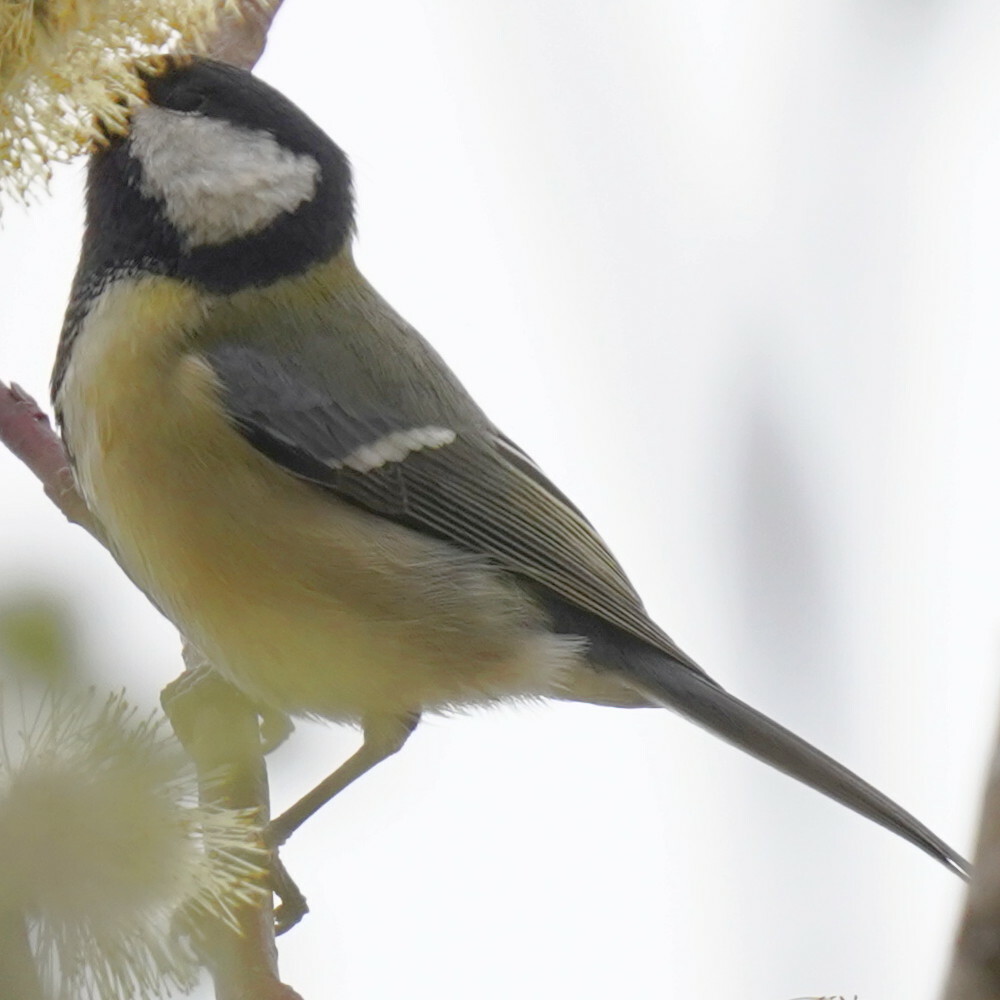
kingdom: Animalia
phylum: Chordata
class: Aves
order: Passeriformes
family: Paridae
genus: Parus
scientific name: Parus major
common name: Great tit
